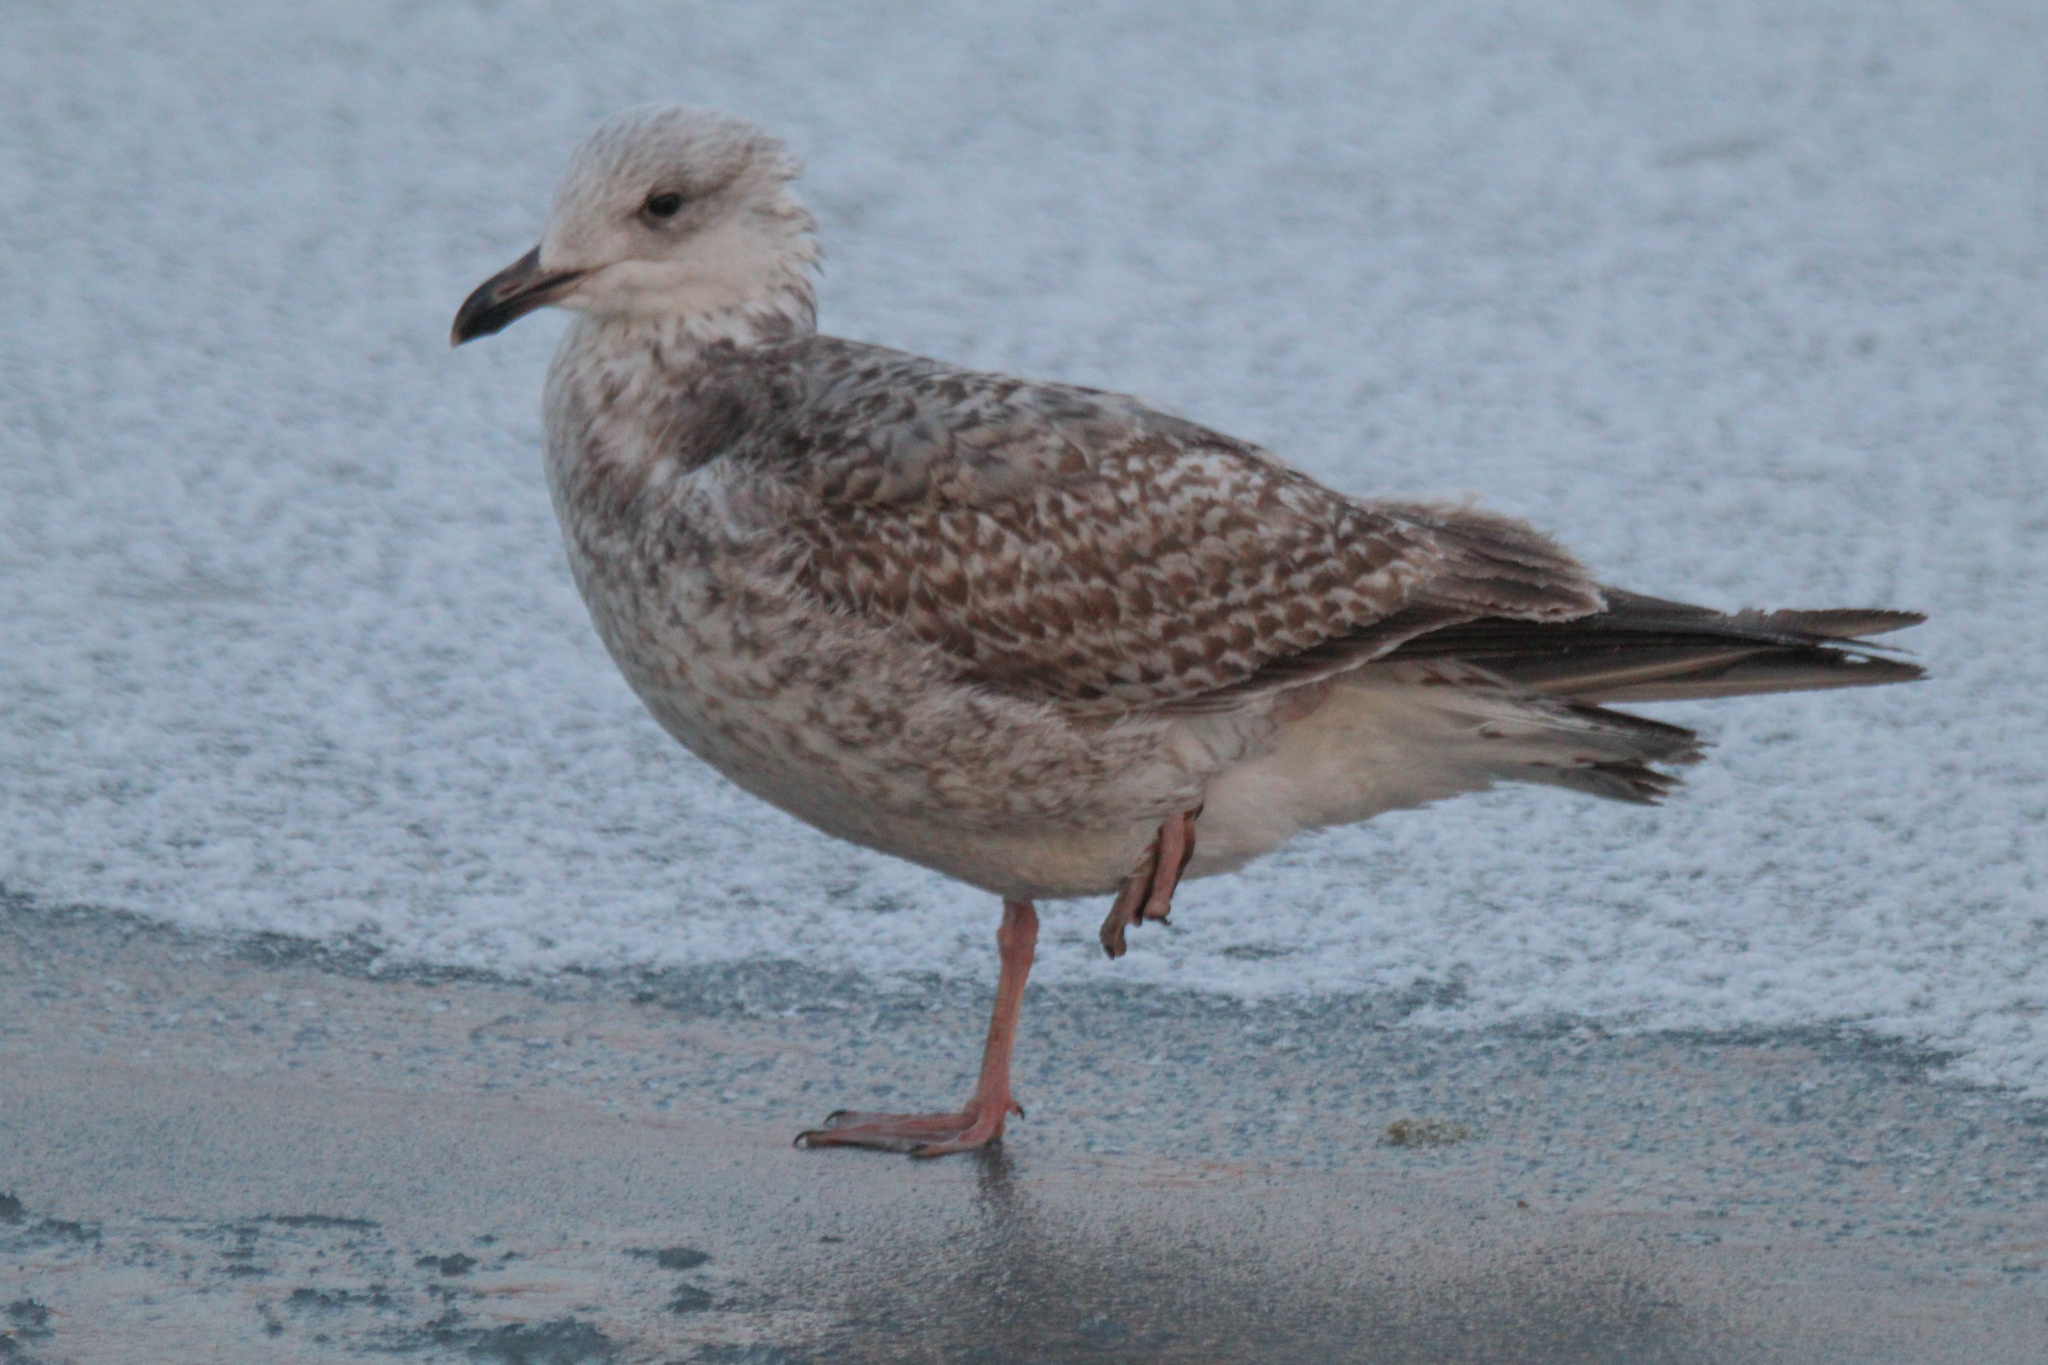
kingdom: Animalia
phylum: Chordata
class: Aves
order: Charadriiformes
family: Laridae
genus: Larus
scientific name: Larus argentatus
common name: Herring gull
